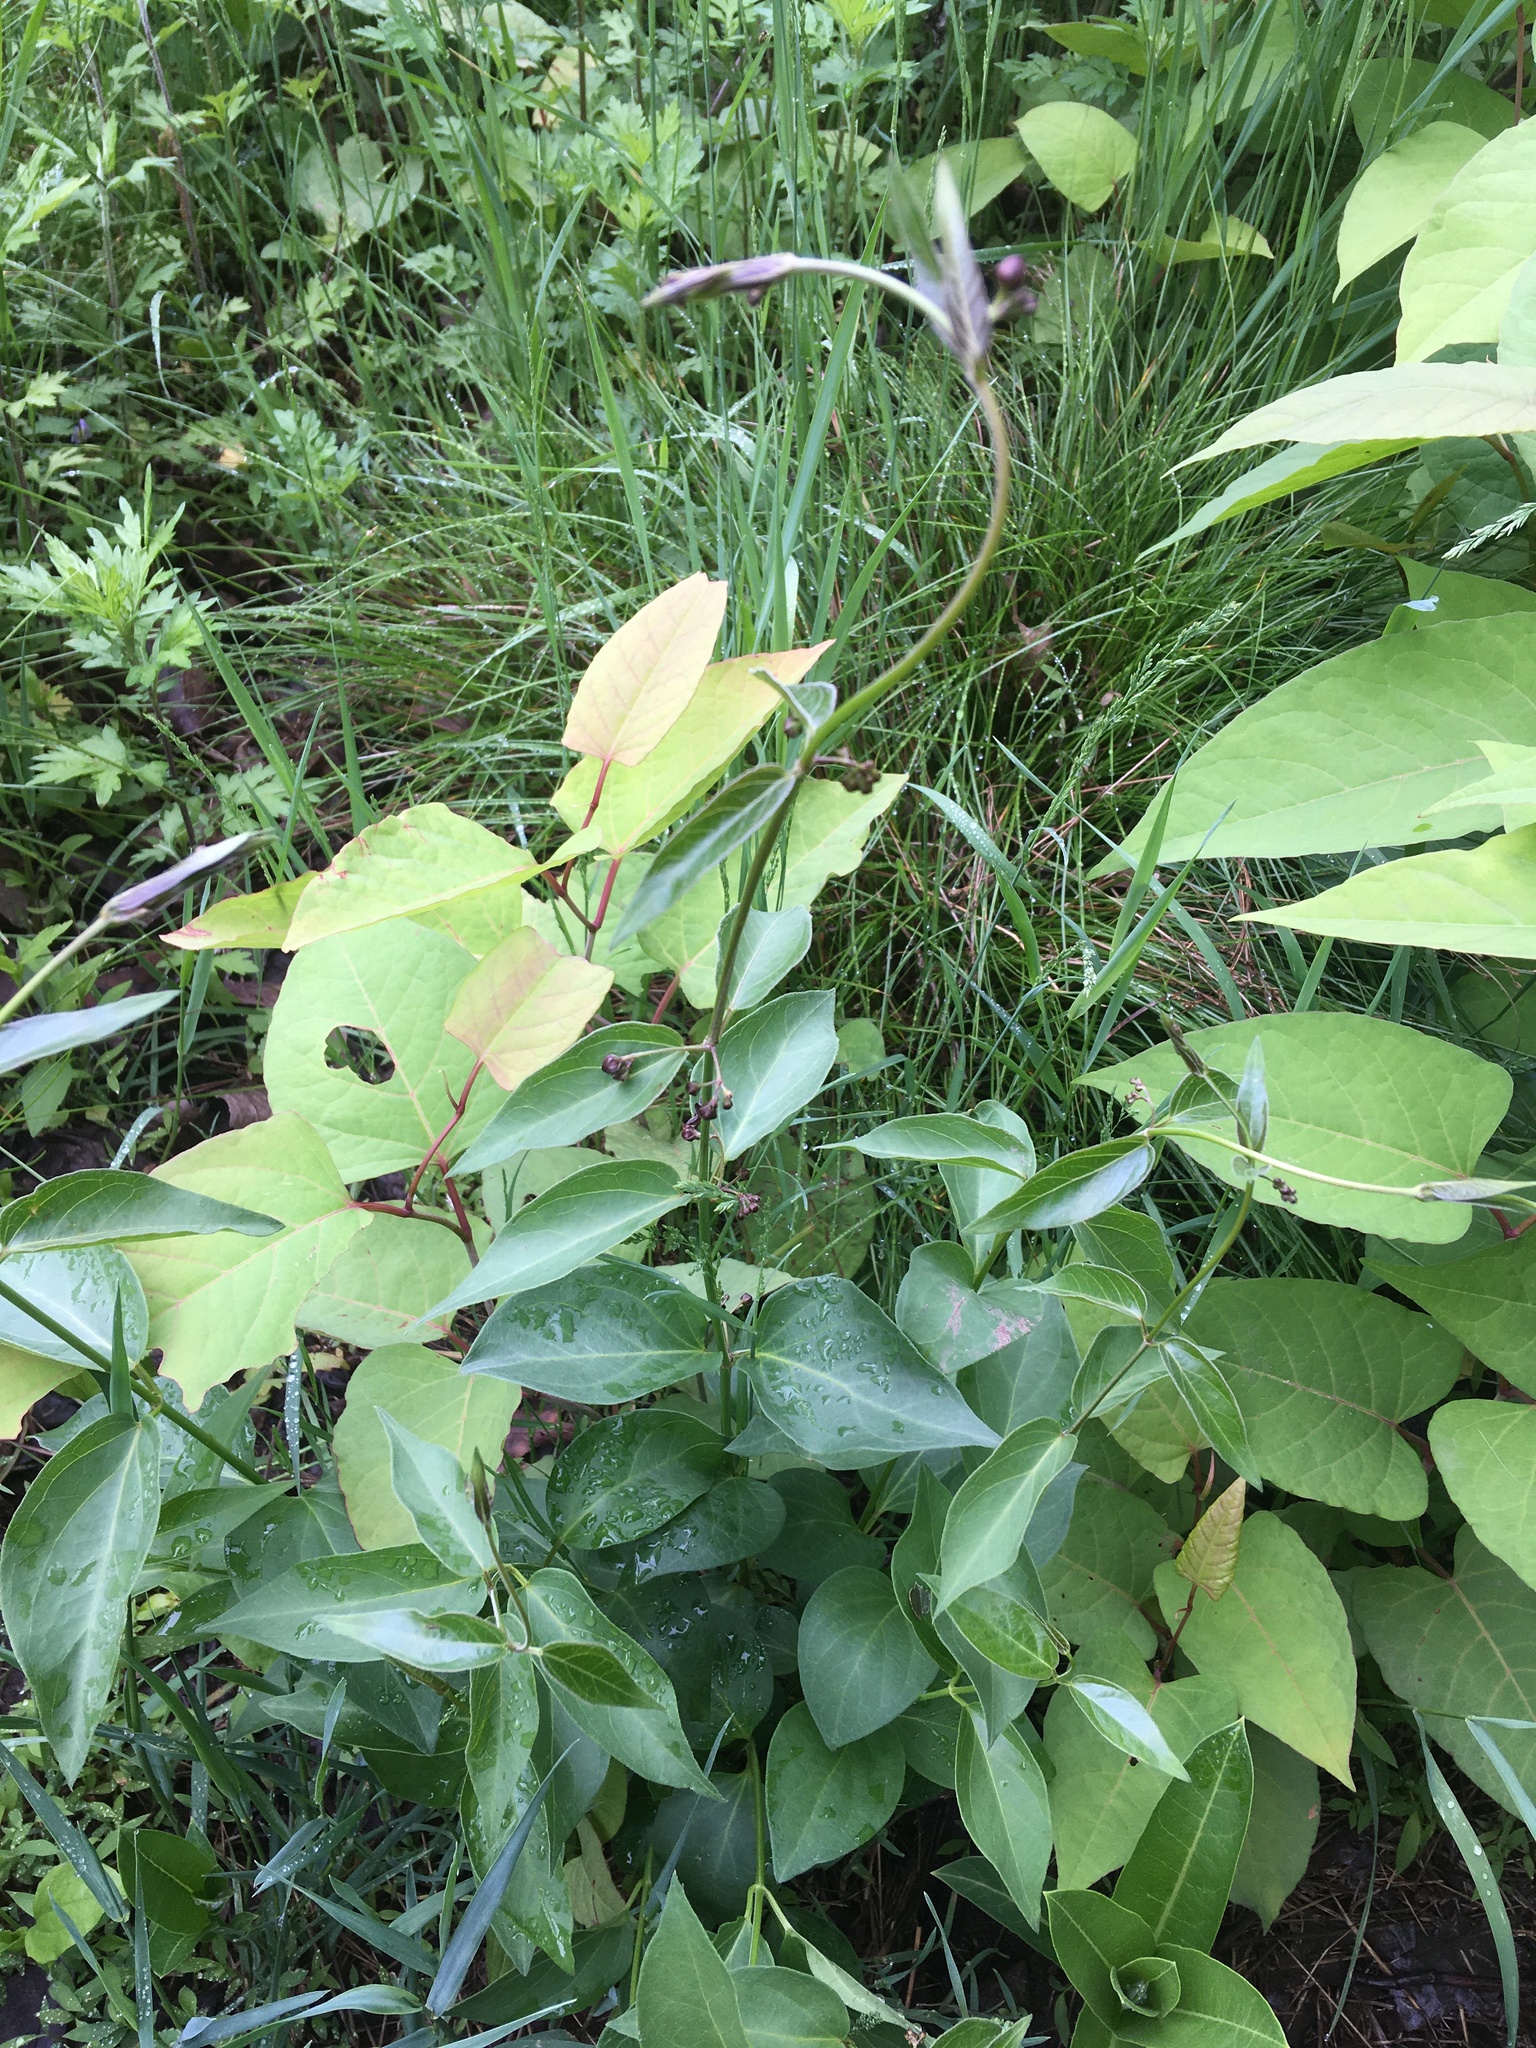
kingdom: Plantae
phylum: Tracheophyta
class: Magnoliopsida
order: Gentianales
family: Apocynaceae
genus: Vincetoxicum
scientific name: Vincetoxicum nigrum
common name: Black swallow-wort
